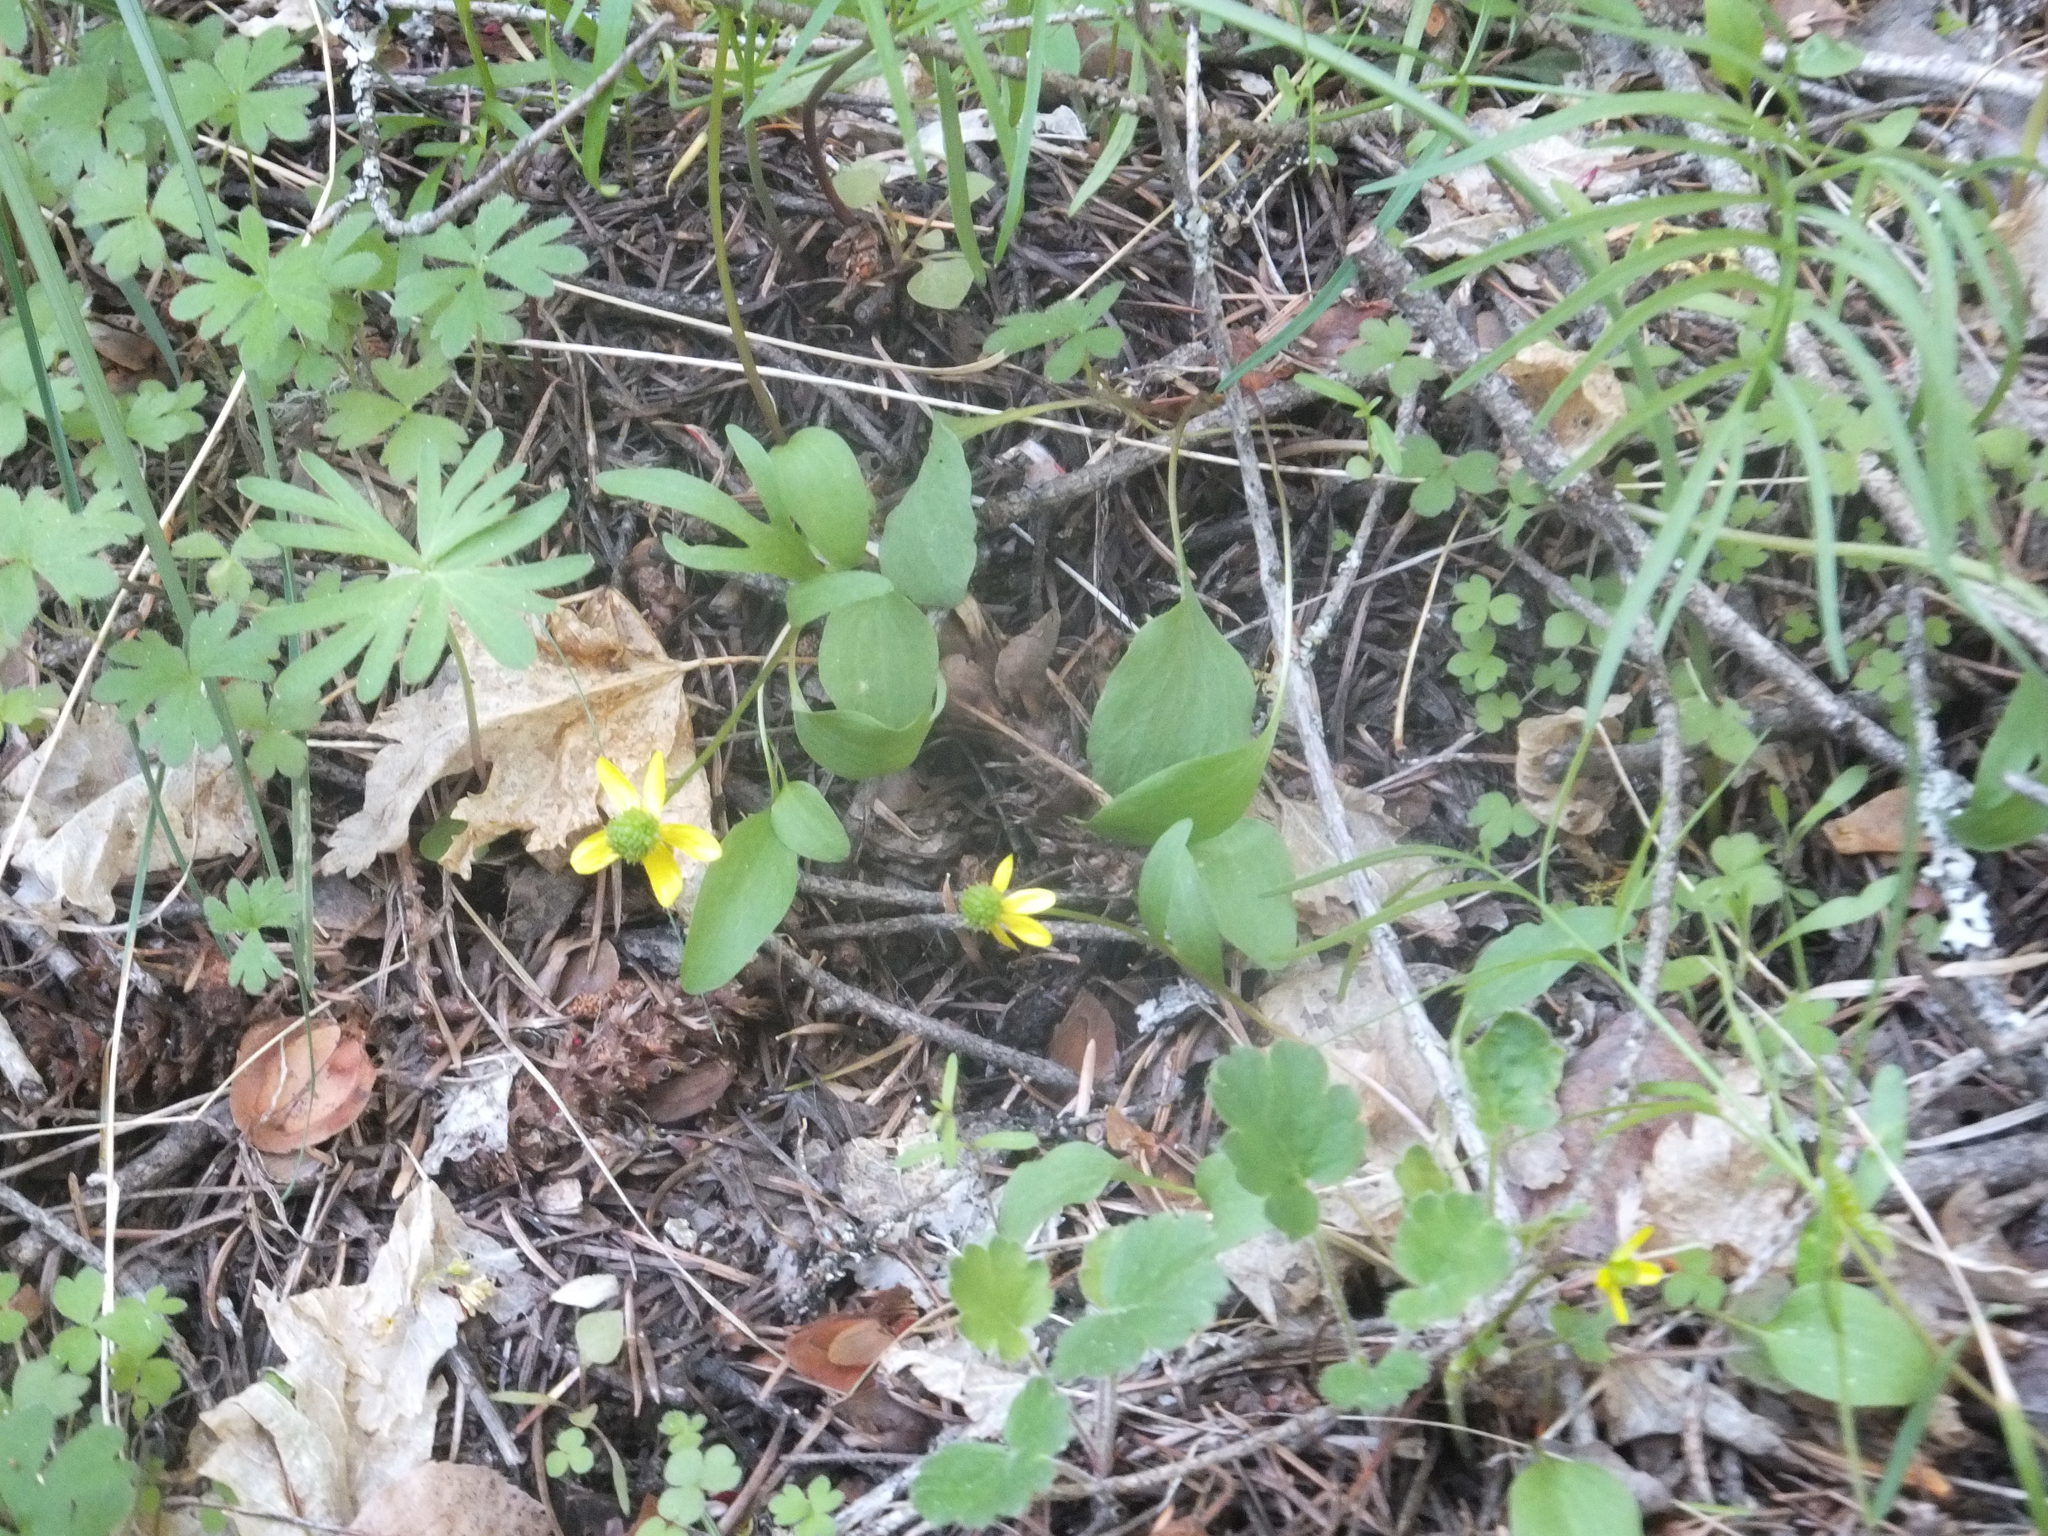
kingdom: Plantae
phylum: Tracheophyta
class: Magnoliopsida
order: Ranunculales
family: Ranunculaceae
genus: Ranunculus
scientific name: Ranunculus glaberrimus
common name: Sagebrush buttercup
